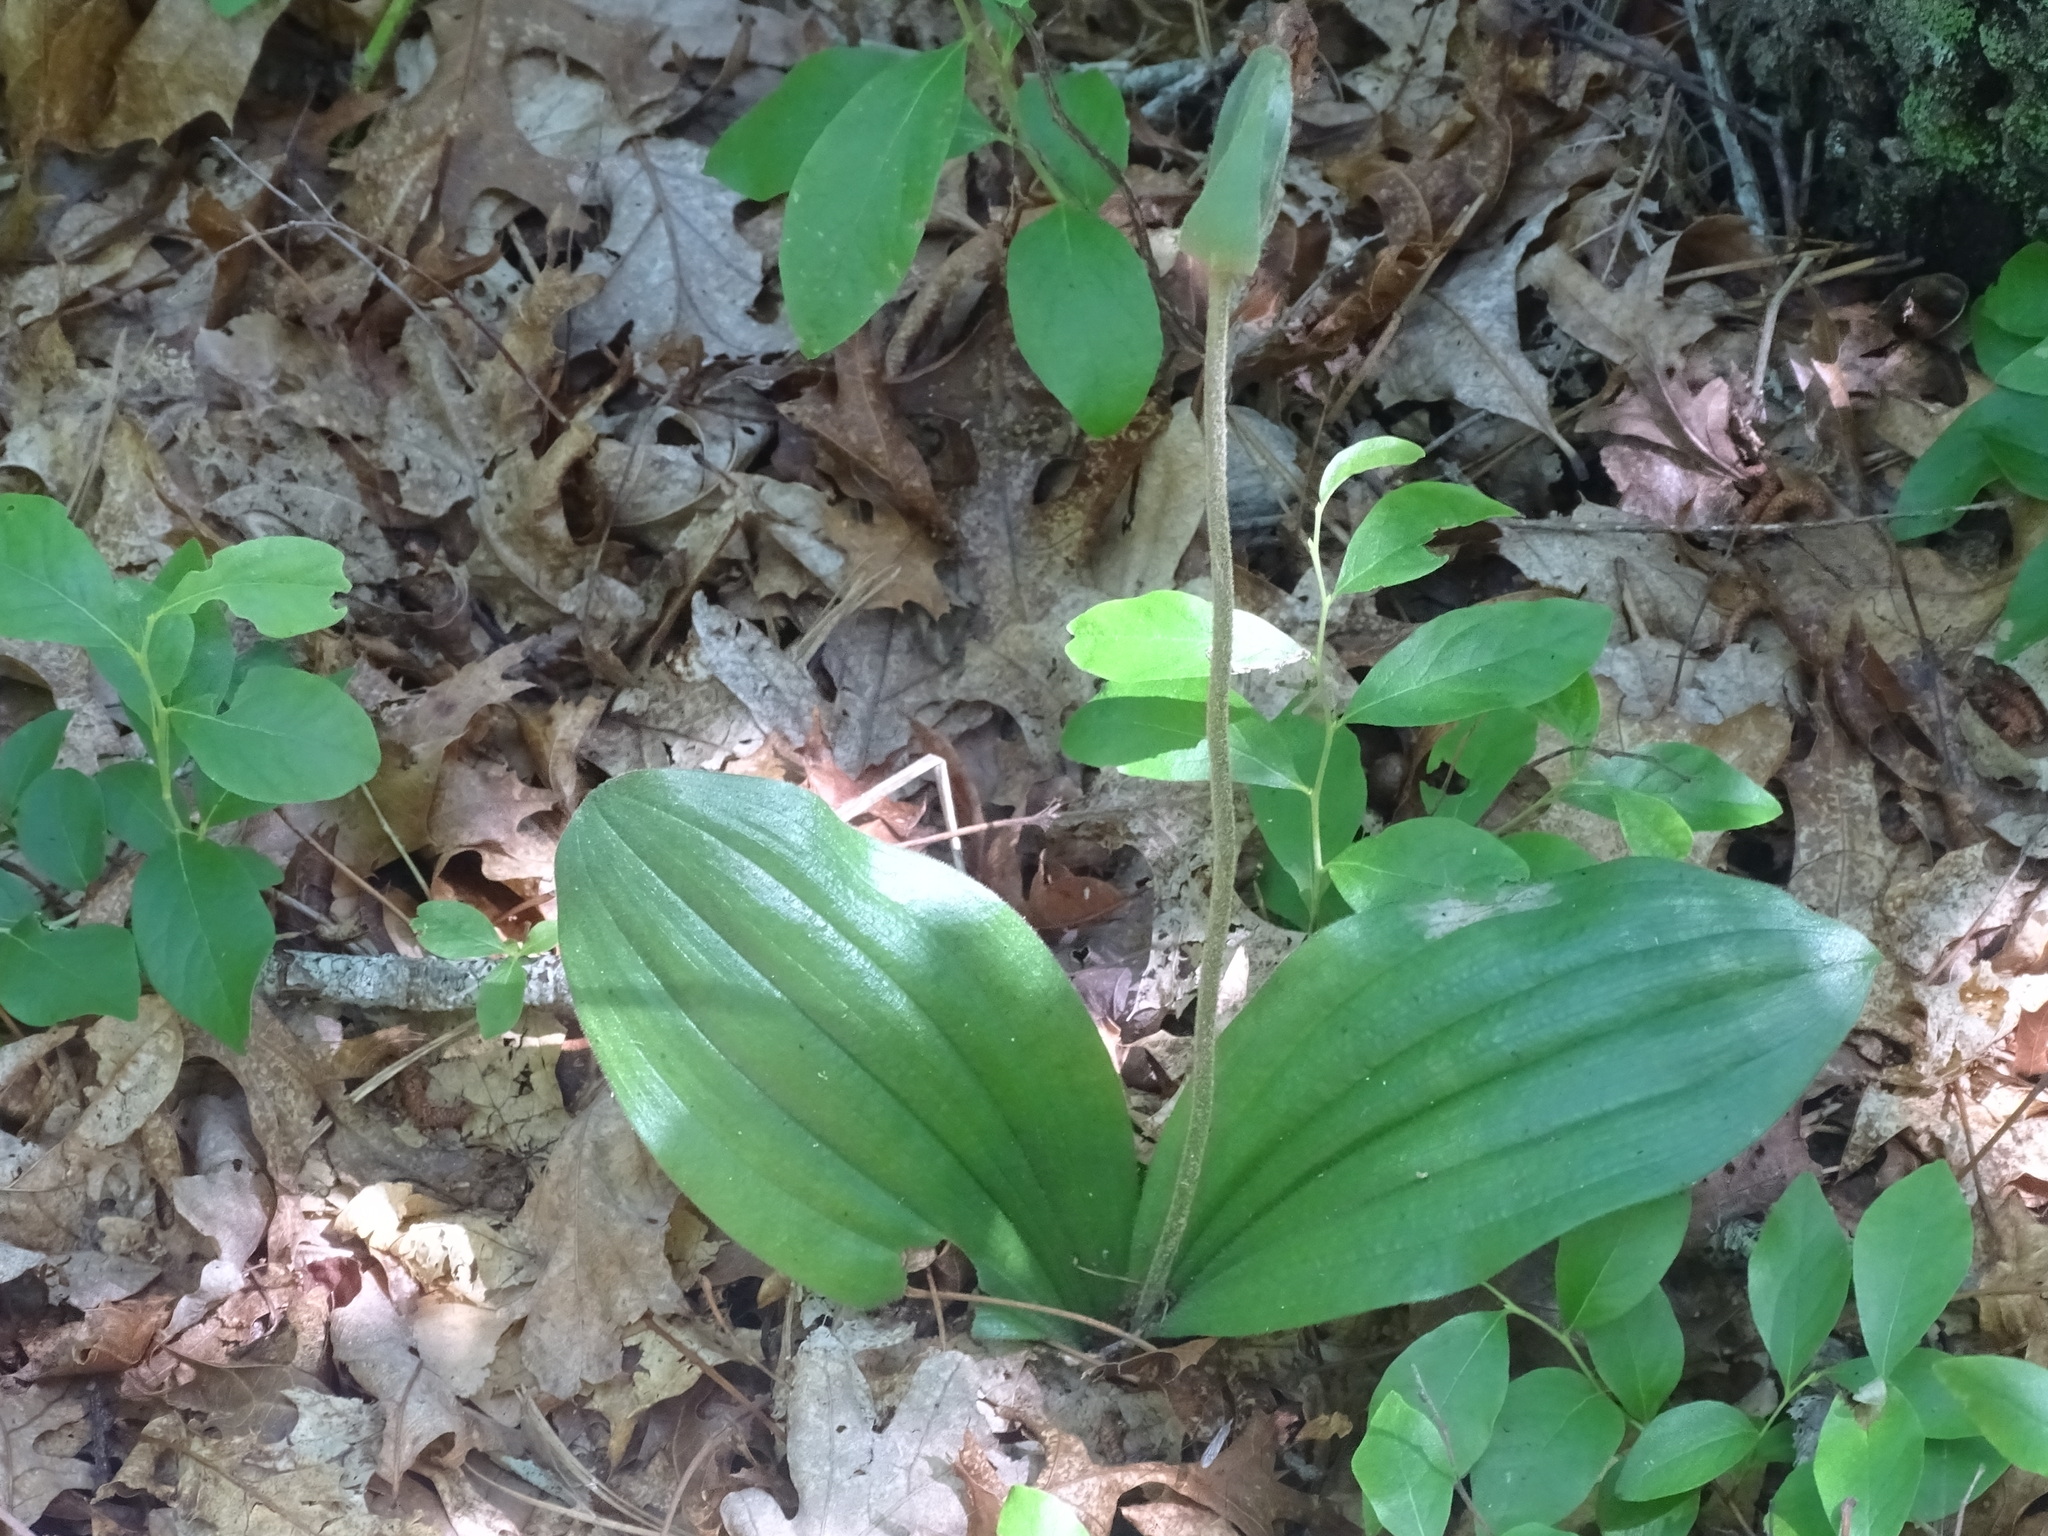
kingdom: Plantae
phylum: Tracheophyta
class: Liliopsida
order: Asparagales
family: Orchidaceae
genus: Cypripedium
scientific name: Cypripedium acaule
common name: Pink lady's-slipper
